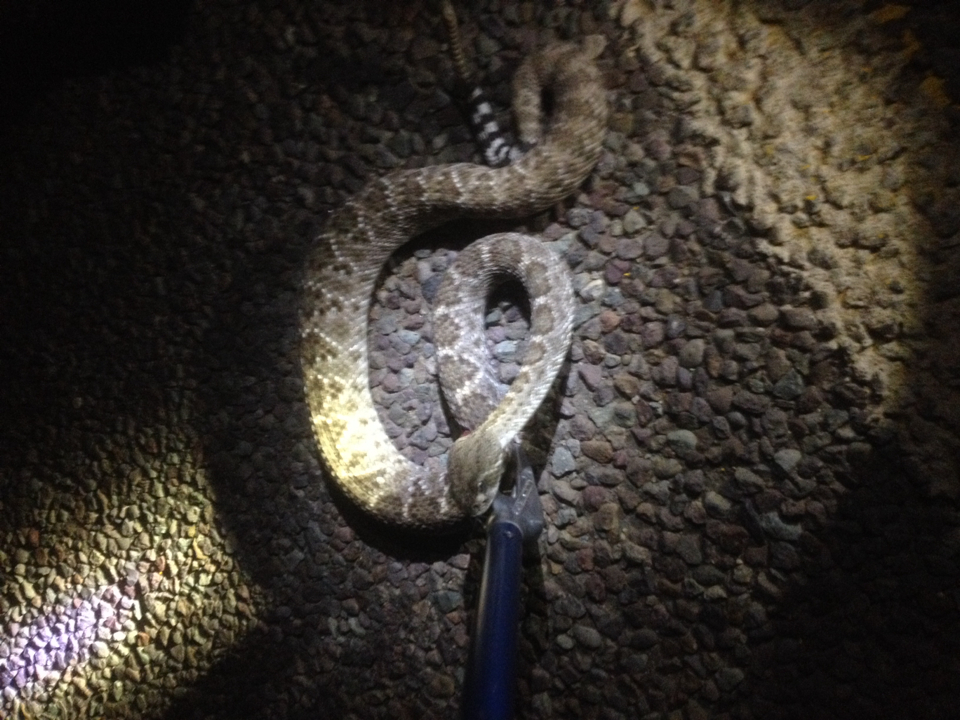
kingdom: Animalia
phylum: Chordata
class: Squamata
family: Viperidae
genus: Crotalus
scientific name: Crotalus atrox
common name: Western diamond-backed rattlesnake
